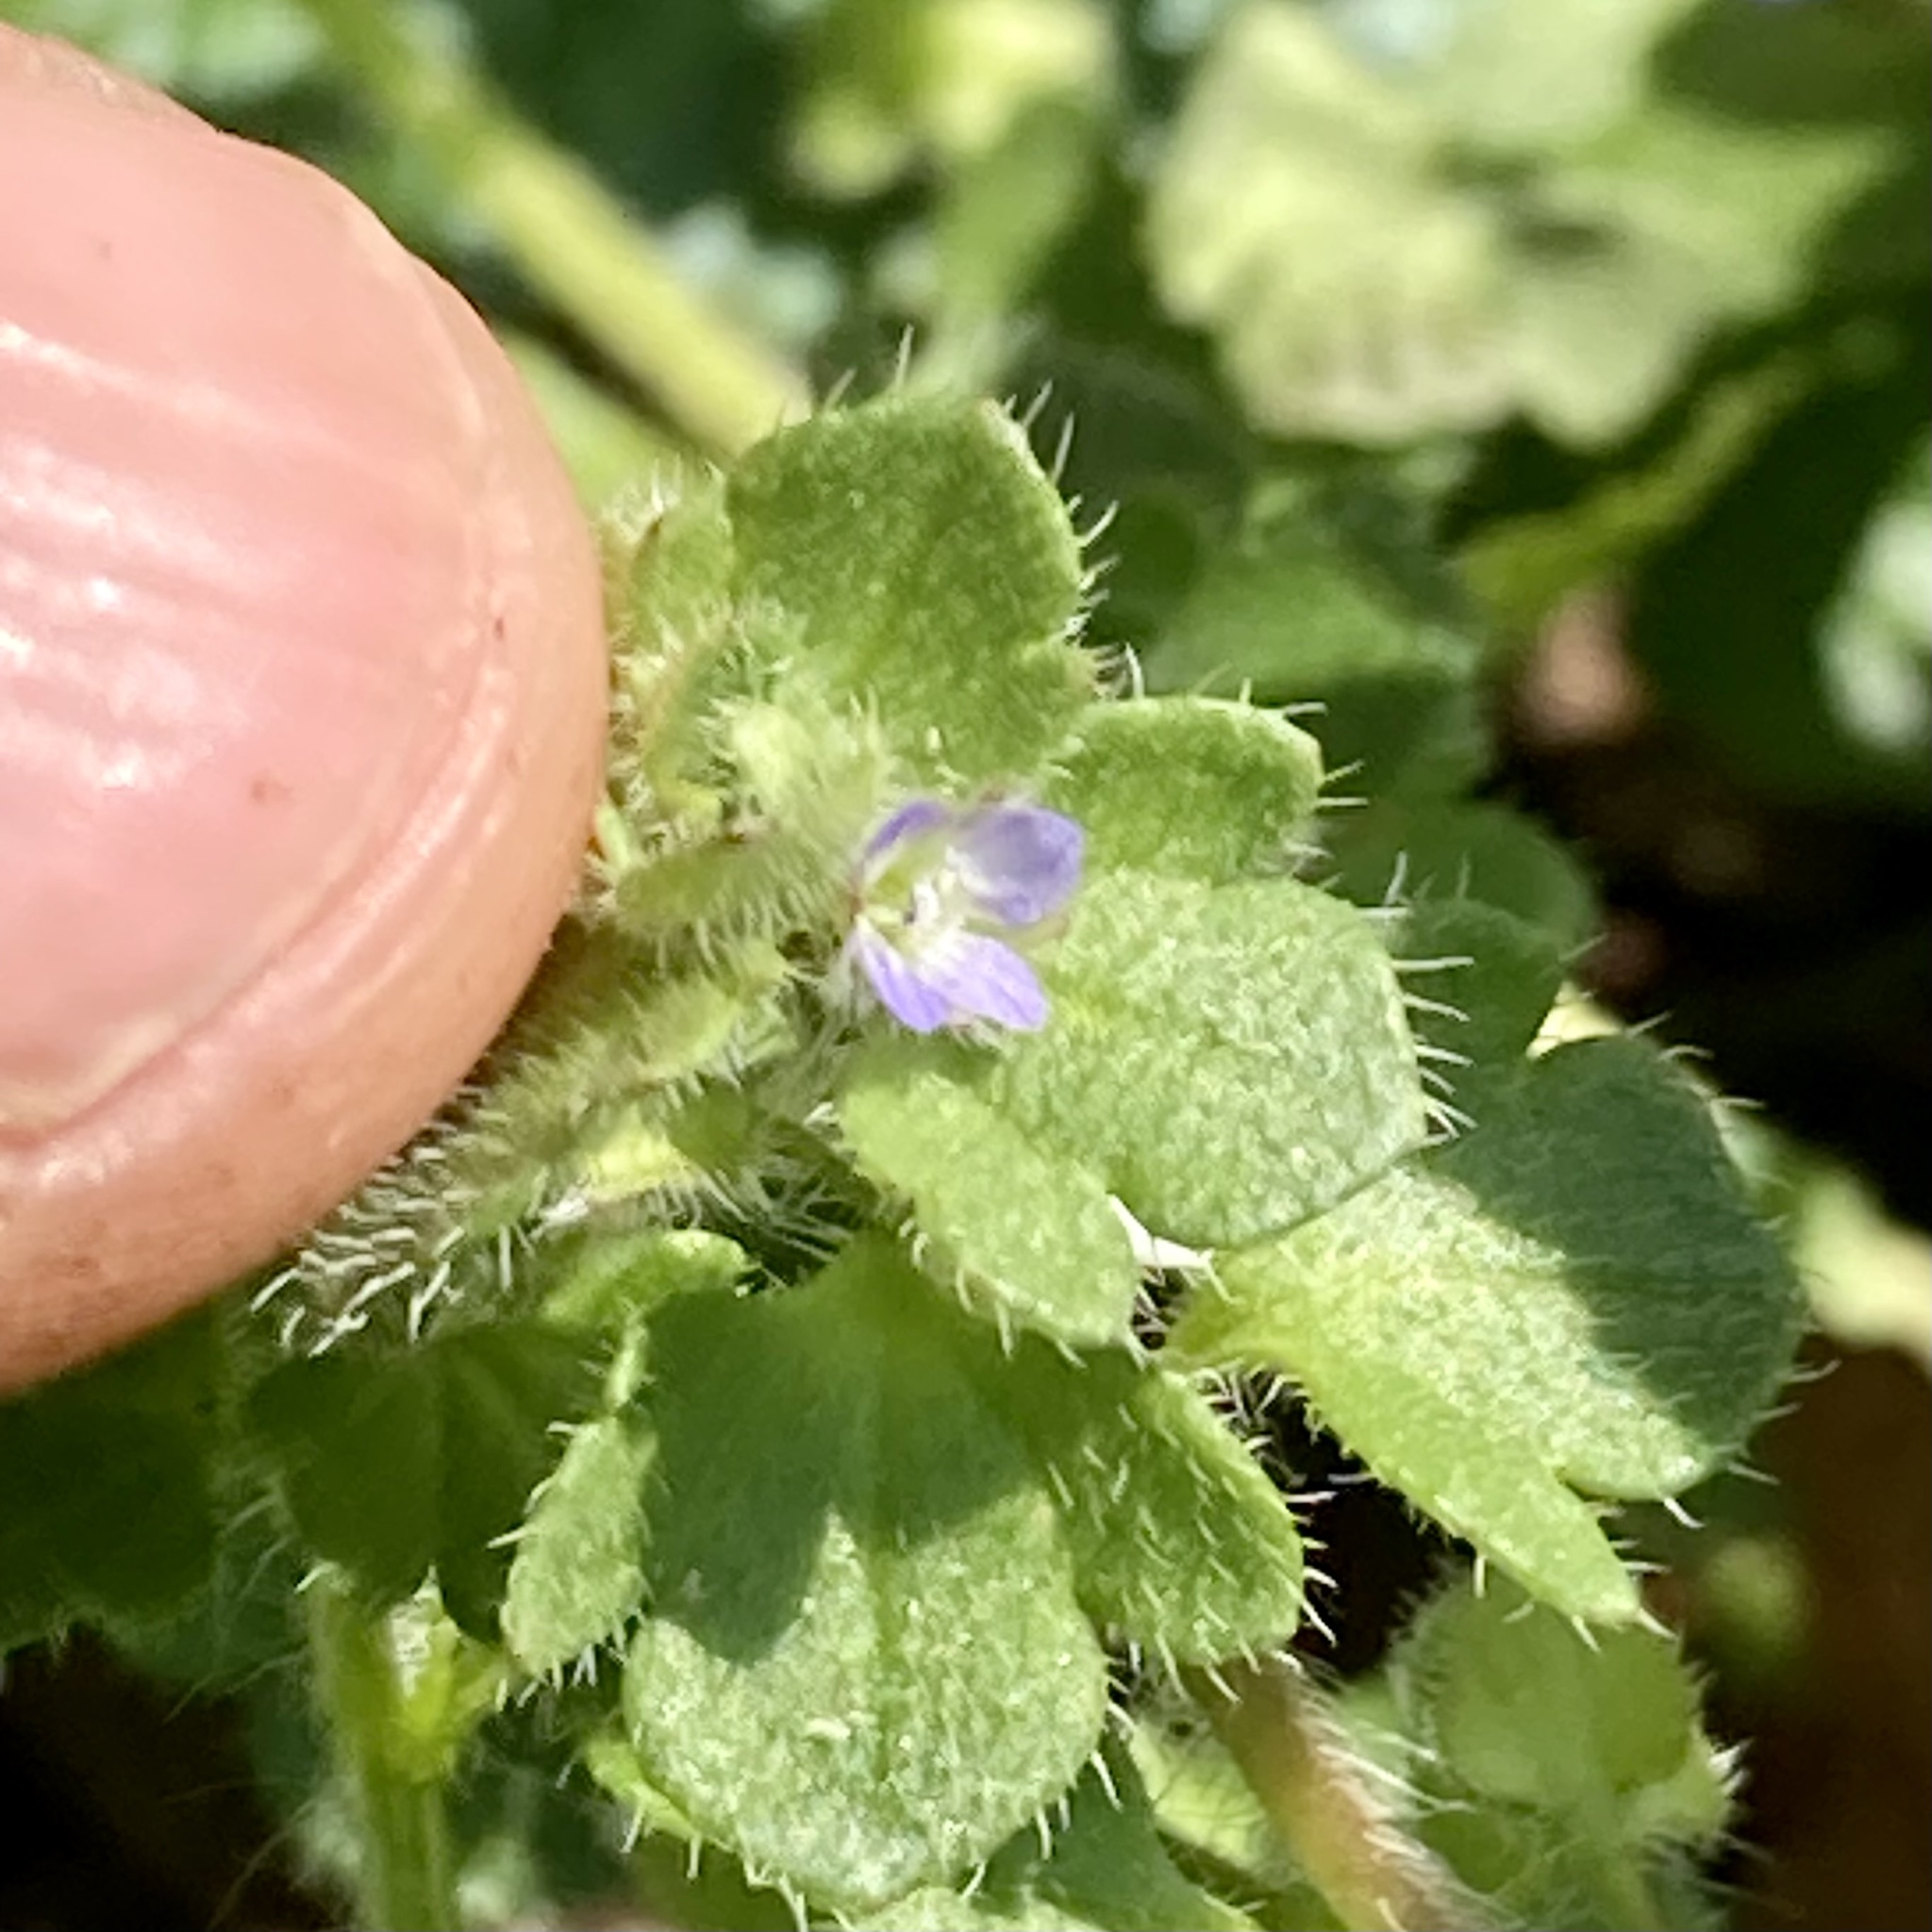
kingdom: Plantae
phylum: Tracheophyta
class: Magnoliopsida
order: Lamiales
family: Plantaginaceae
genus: Veronica
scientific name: Veronica hederifolia
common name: Ivy-leaved speedwell
